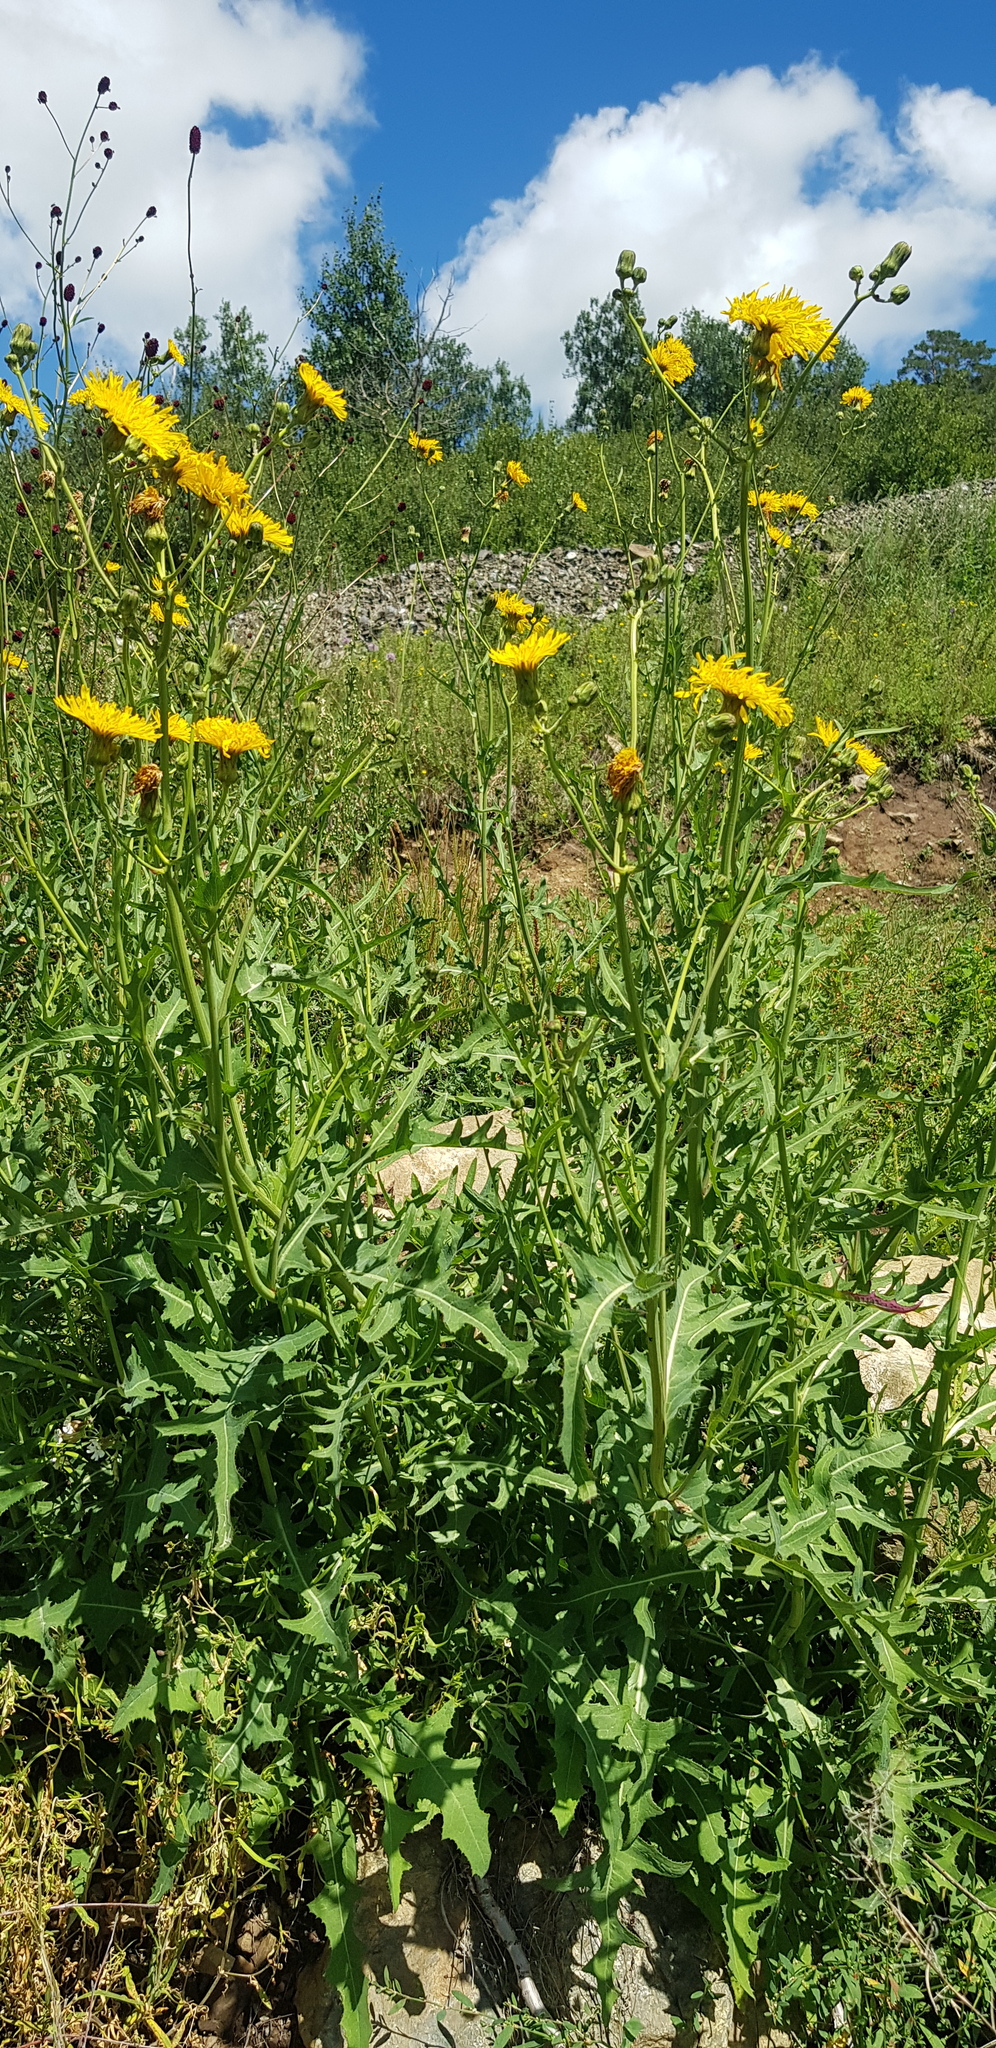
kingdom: Plantae
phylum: Tracheophyta
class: Magnoliopsida
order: Asterales
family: Asteraceae
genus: Sonchus
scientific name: Sonchus oleraceus
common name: Common sowthistle
